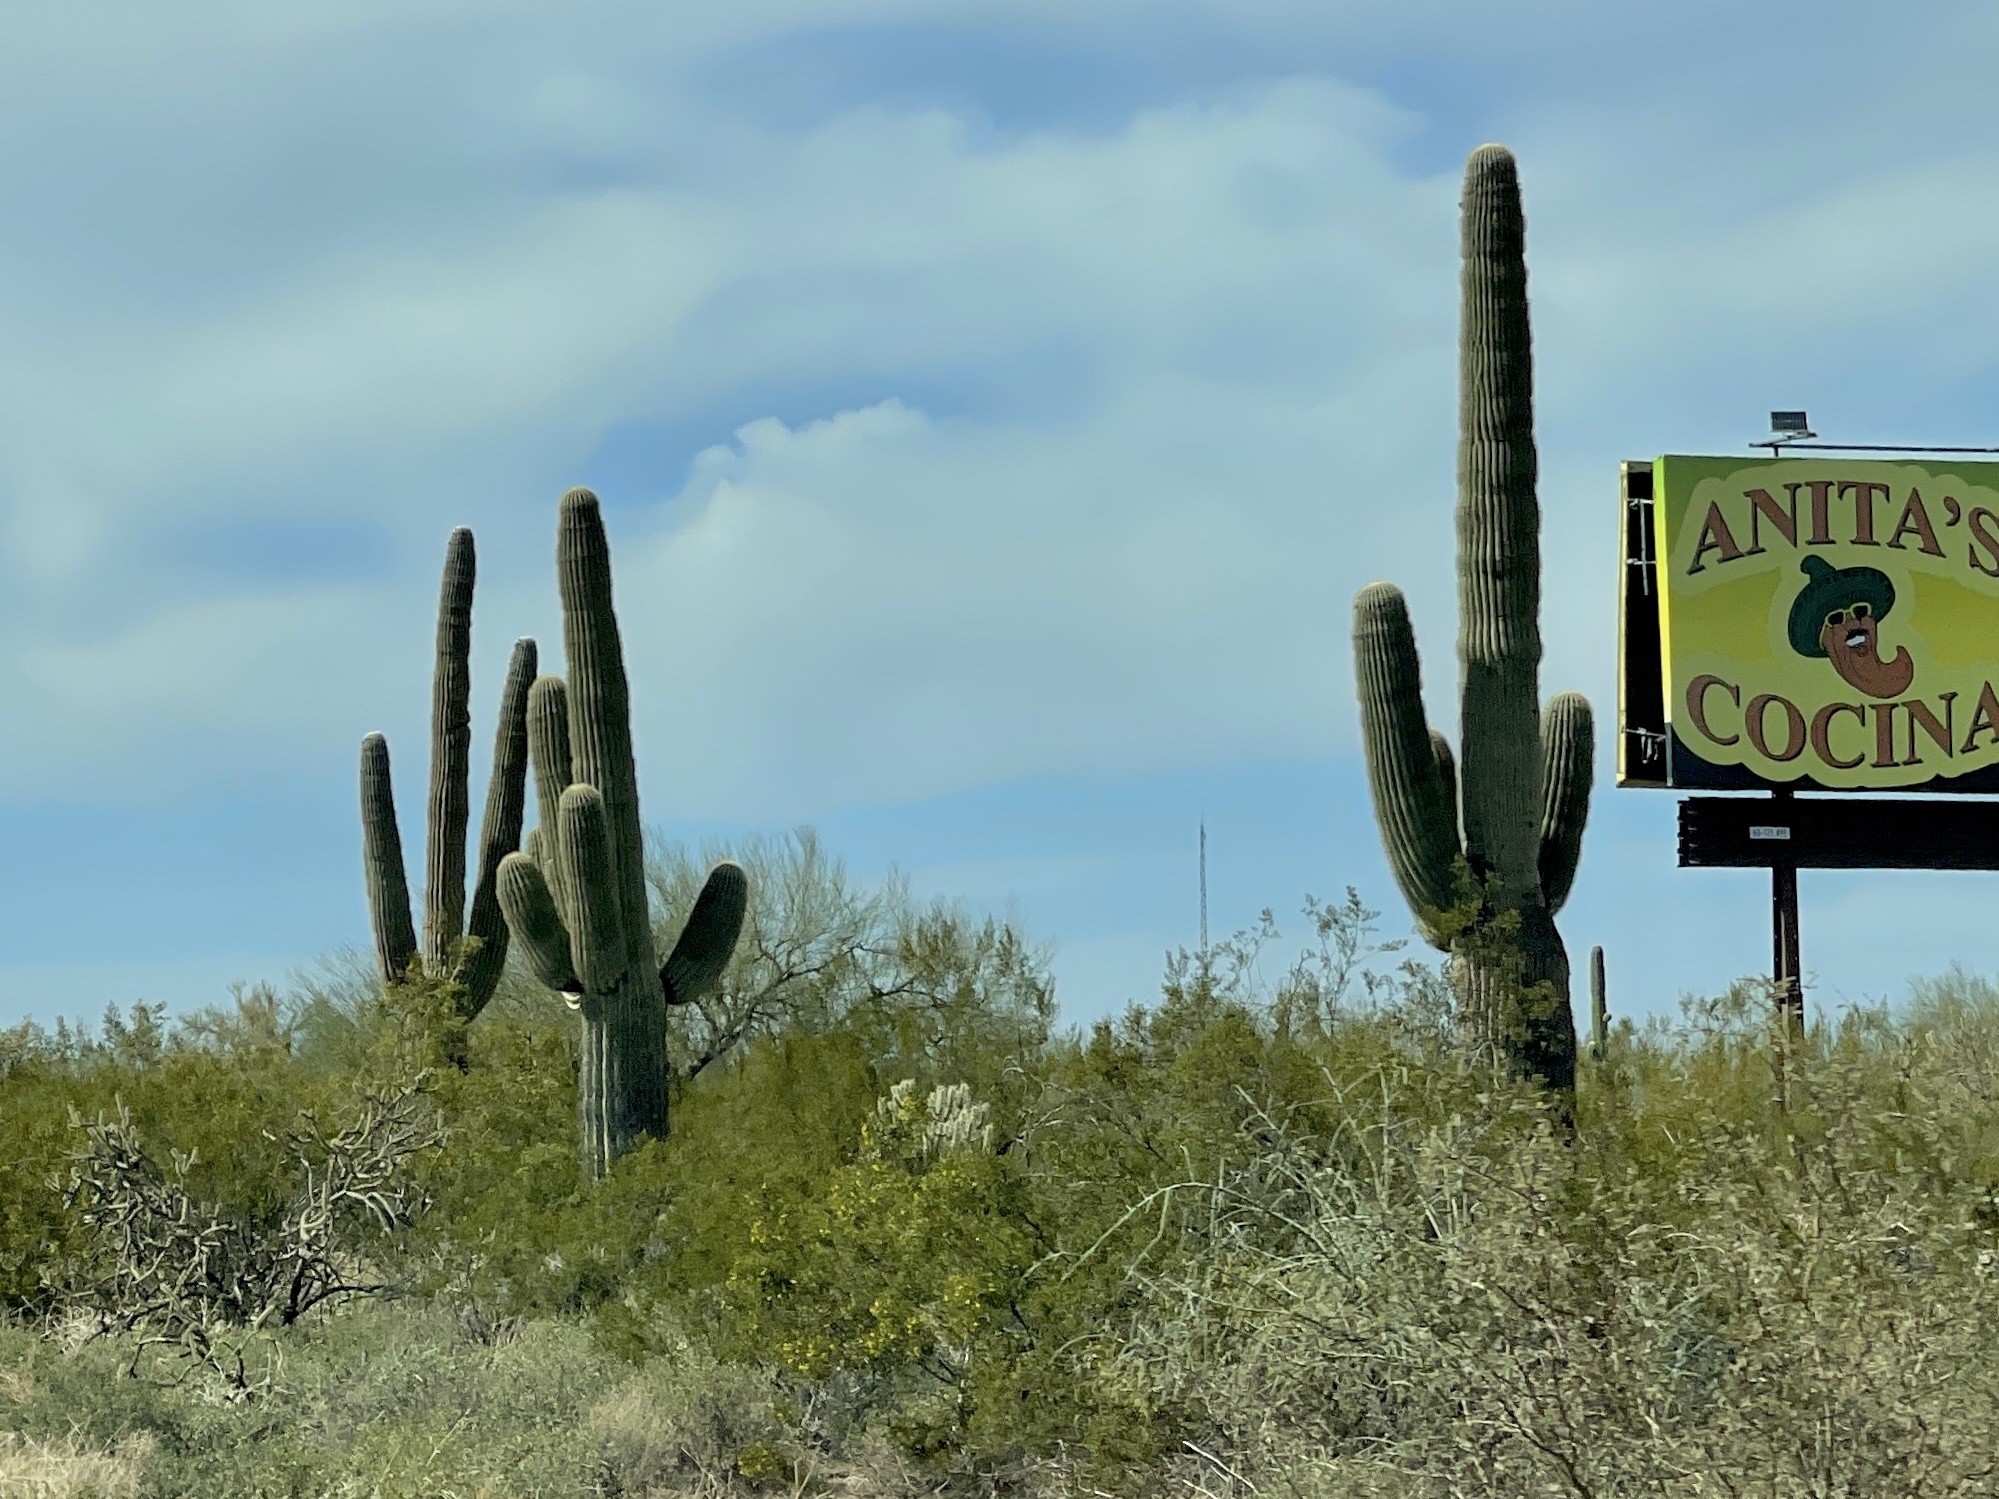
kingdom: Plantae
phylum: Tracheophyta
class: Magnoliopsida
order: Caryophyllales
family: Cactaceae
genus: Carnegiea
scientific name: Carnegiea gigantea
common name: Saguaro
